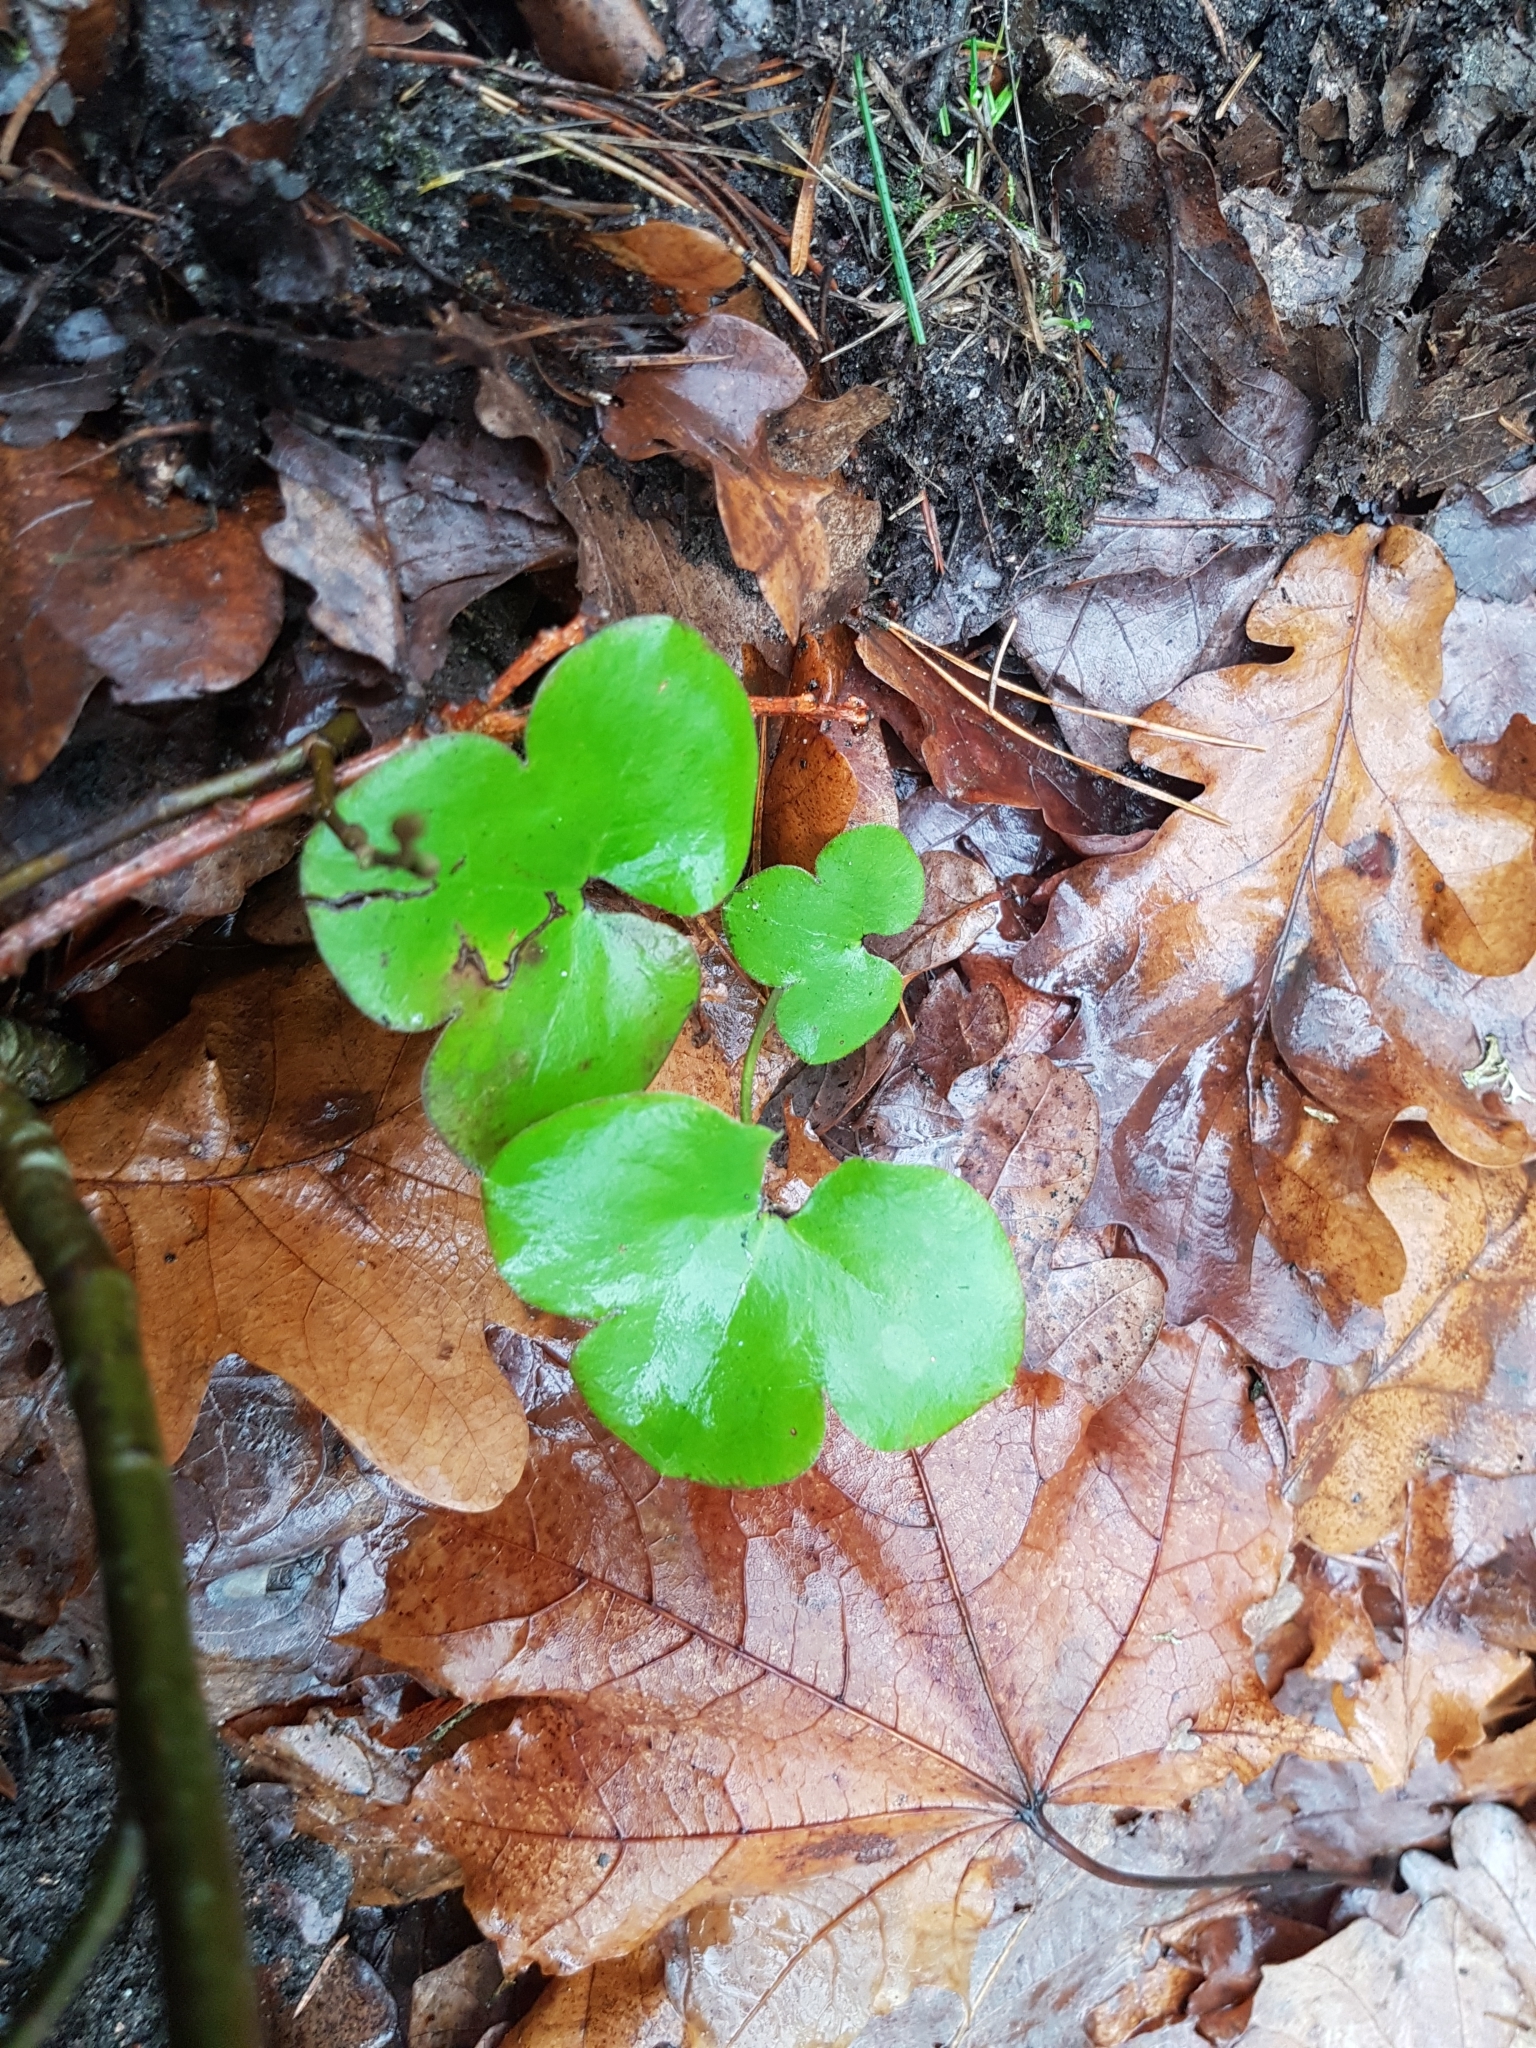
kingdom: Plantae
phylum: Tracheophyta
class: Magnoliopsida
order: Ranunculales
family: Ranunculaceae
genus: Hepatica
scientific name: Hepatica nobilis
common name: Liverleaf
